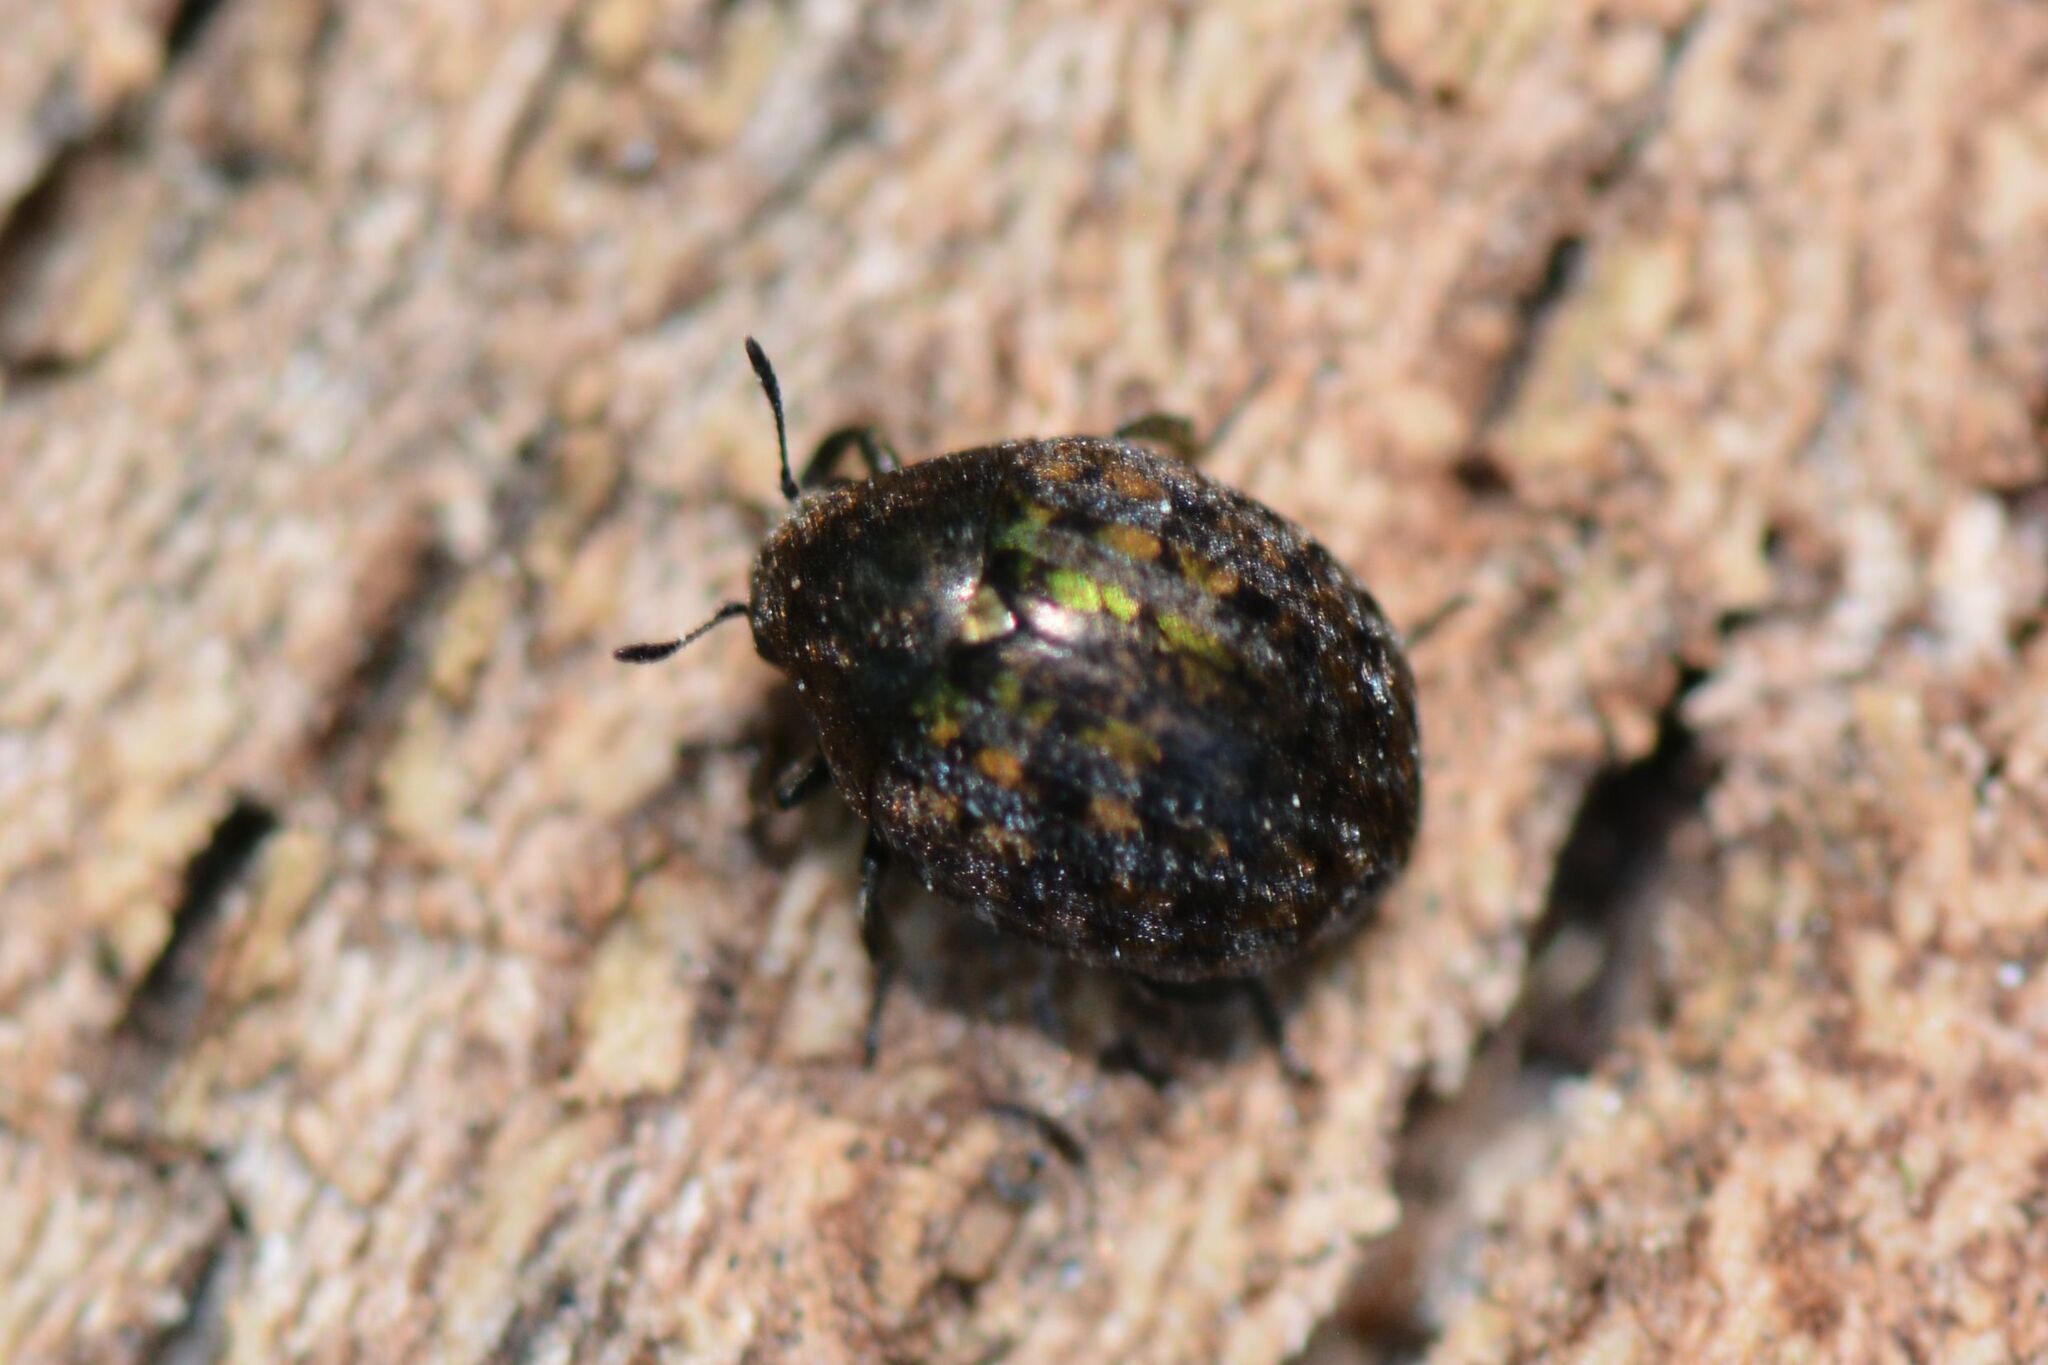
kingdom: Animalia
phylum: Arthropoda
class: Insecta
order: Coleoptera
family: Byrrhidae
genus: Cytilus
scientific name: Cytilus sericeus
